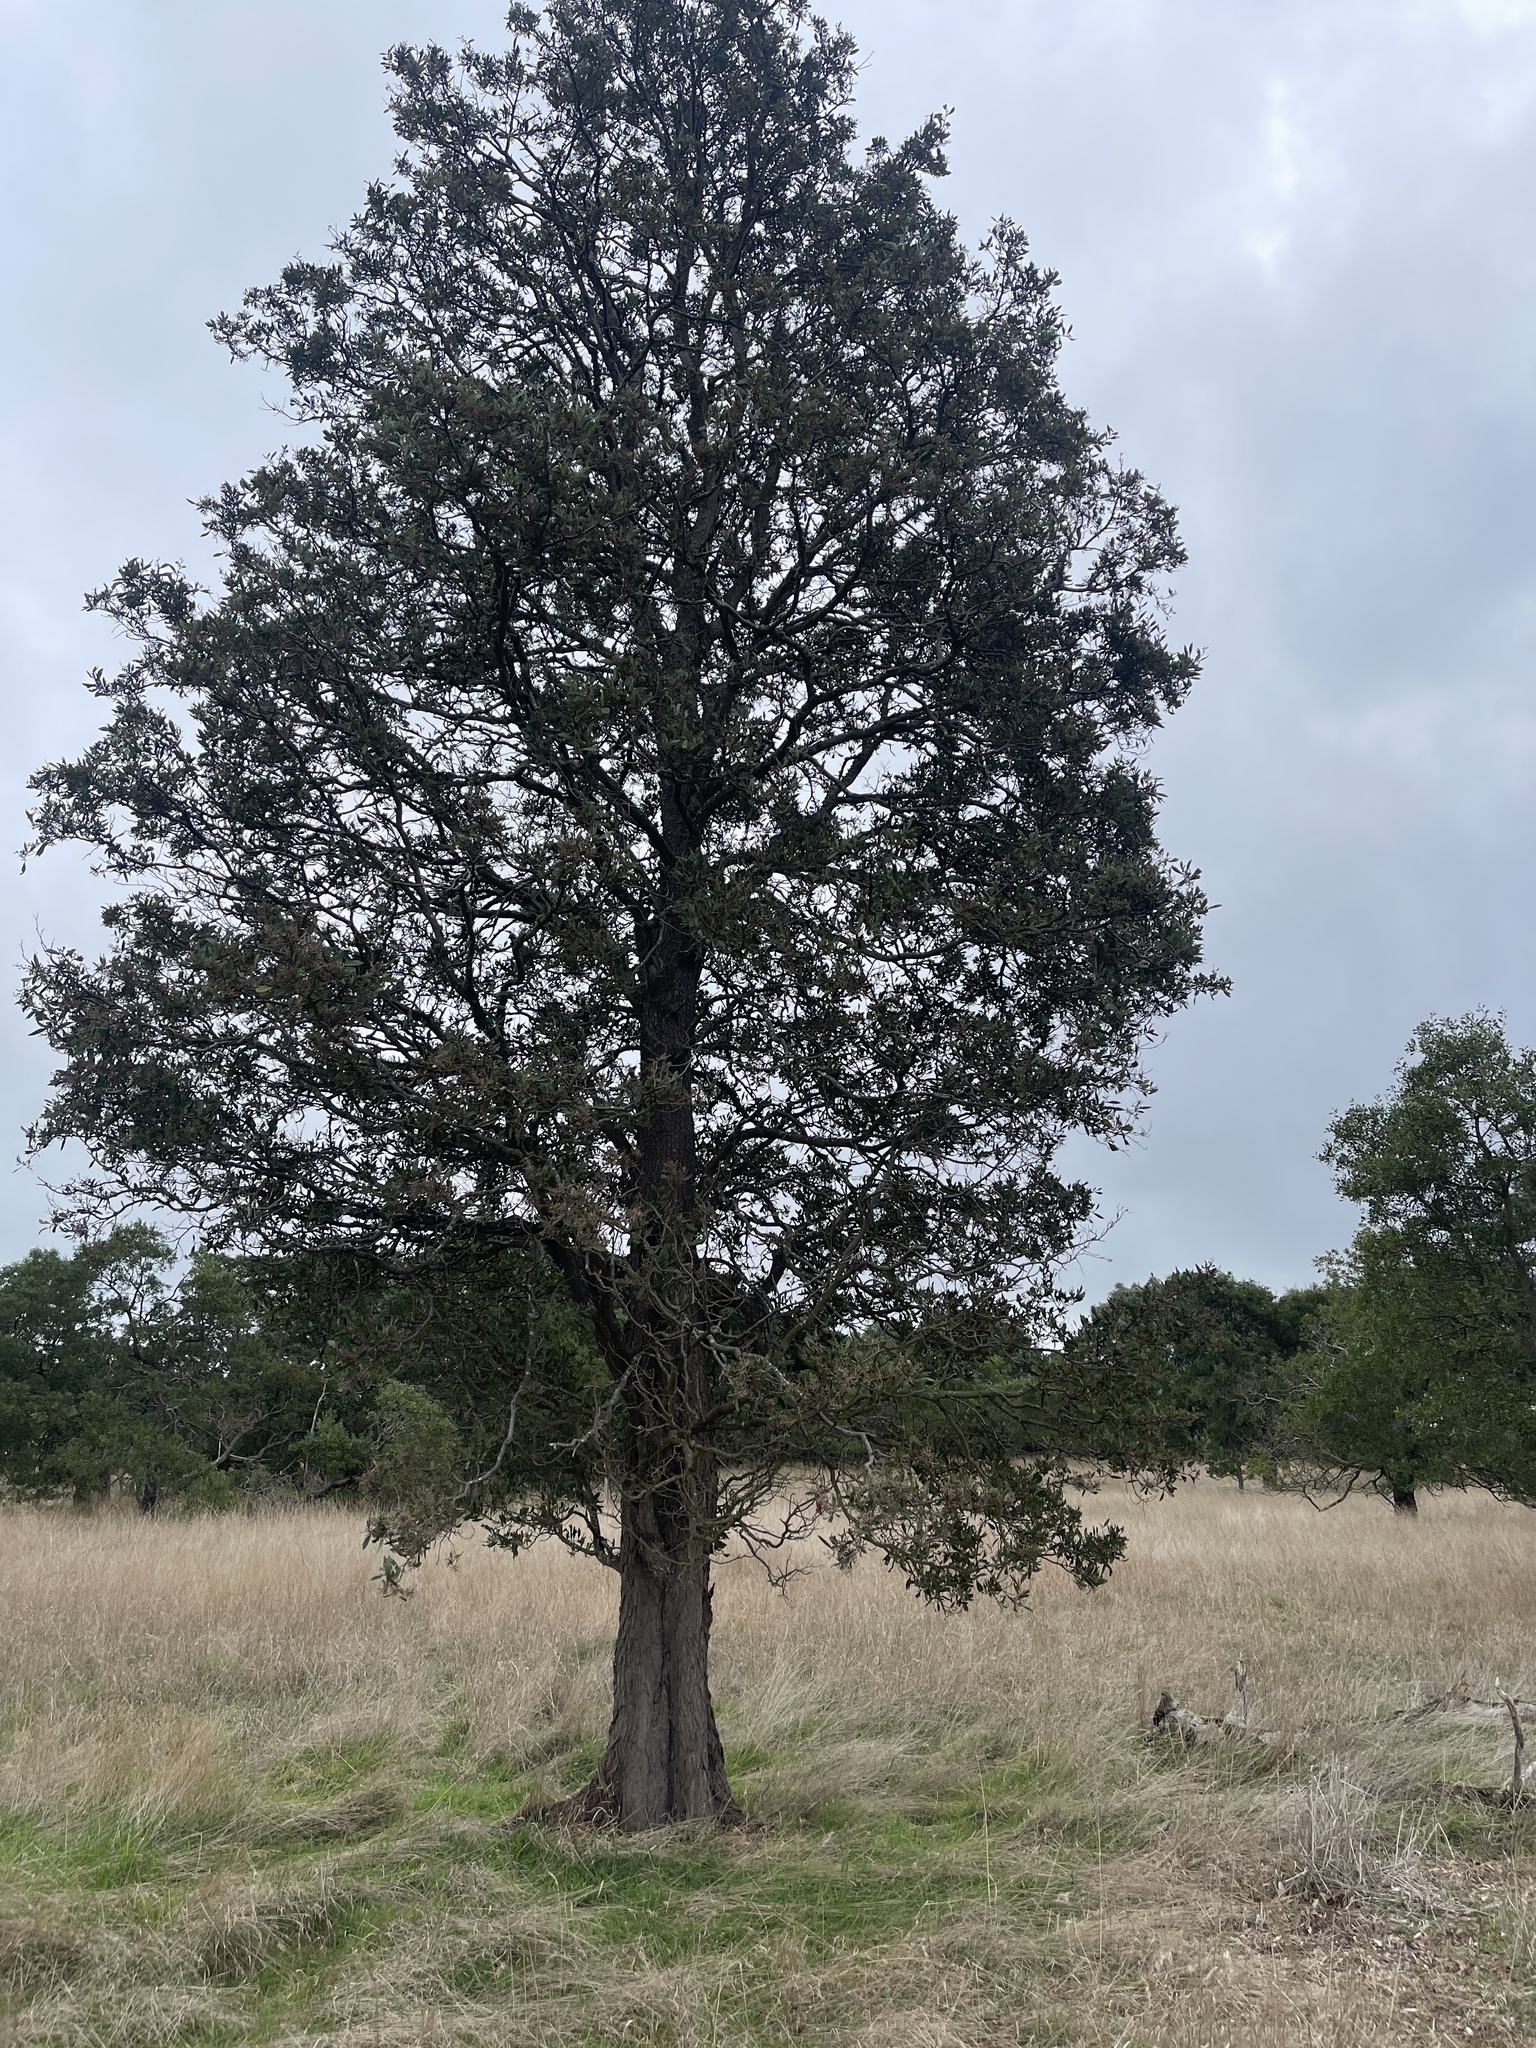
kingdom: Plantae
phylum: Tracheophyta
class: Magnoliopsida
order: Fabales
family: Fabaceae
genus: Acacia
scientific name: Acacia melanoxylon
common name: Blackwood
